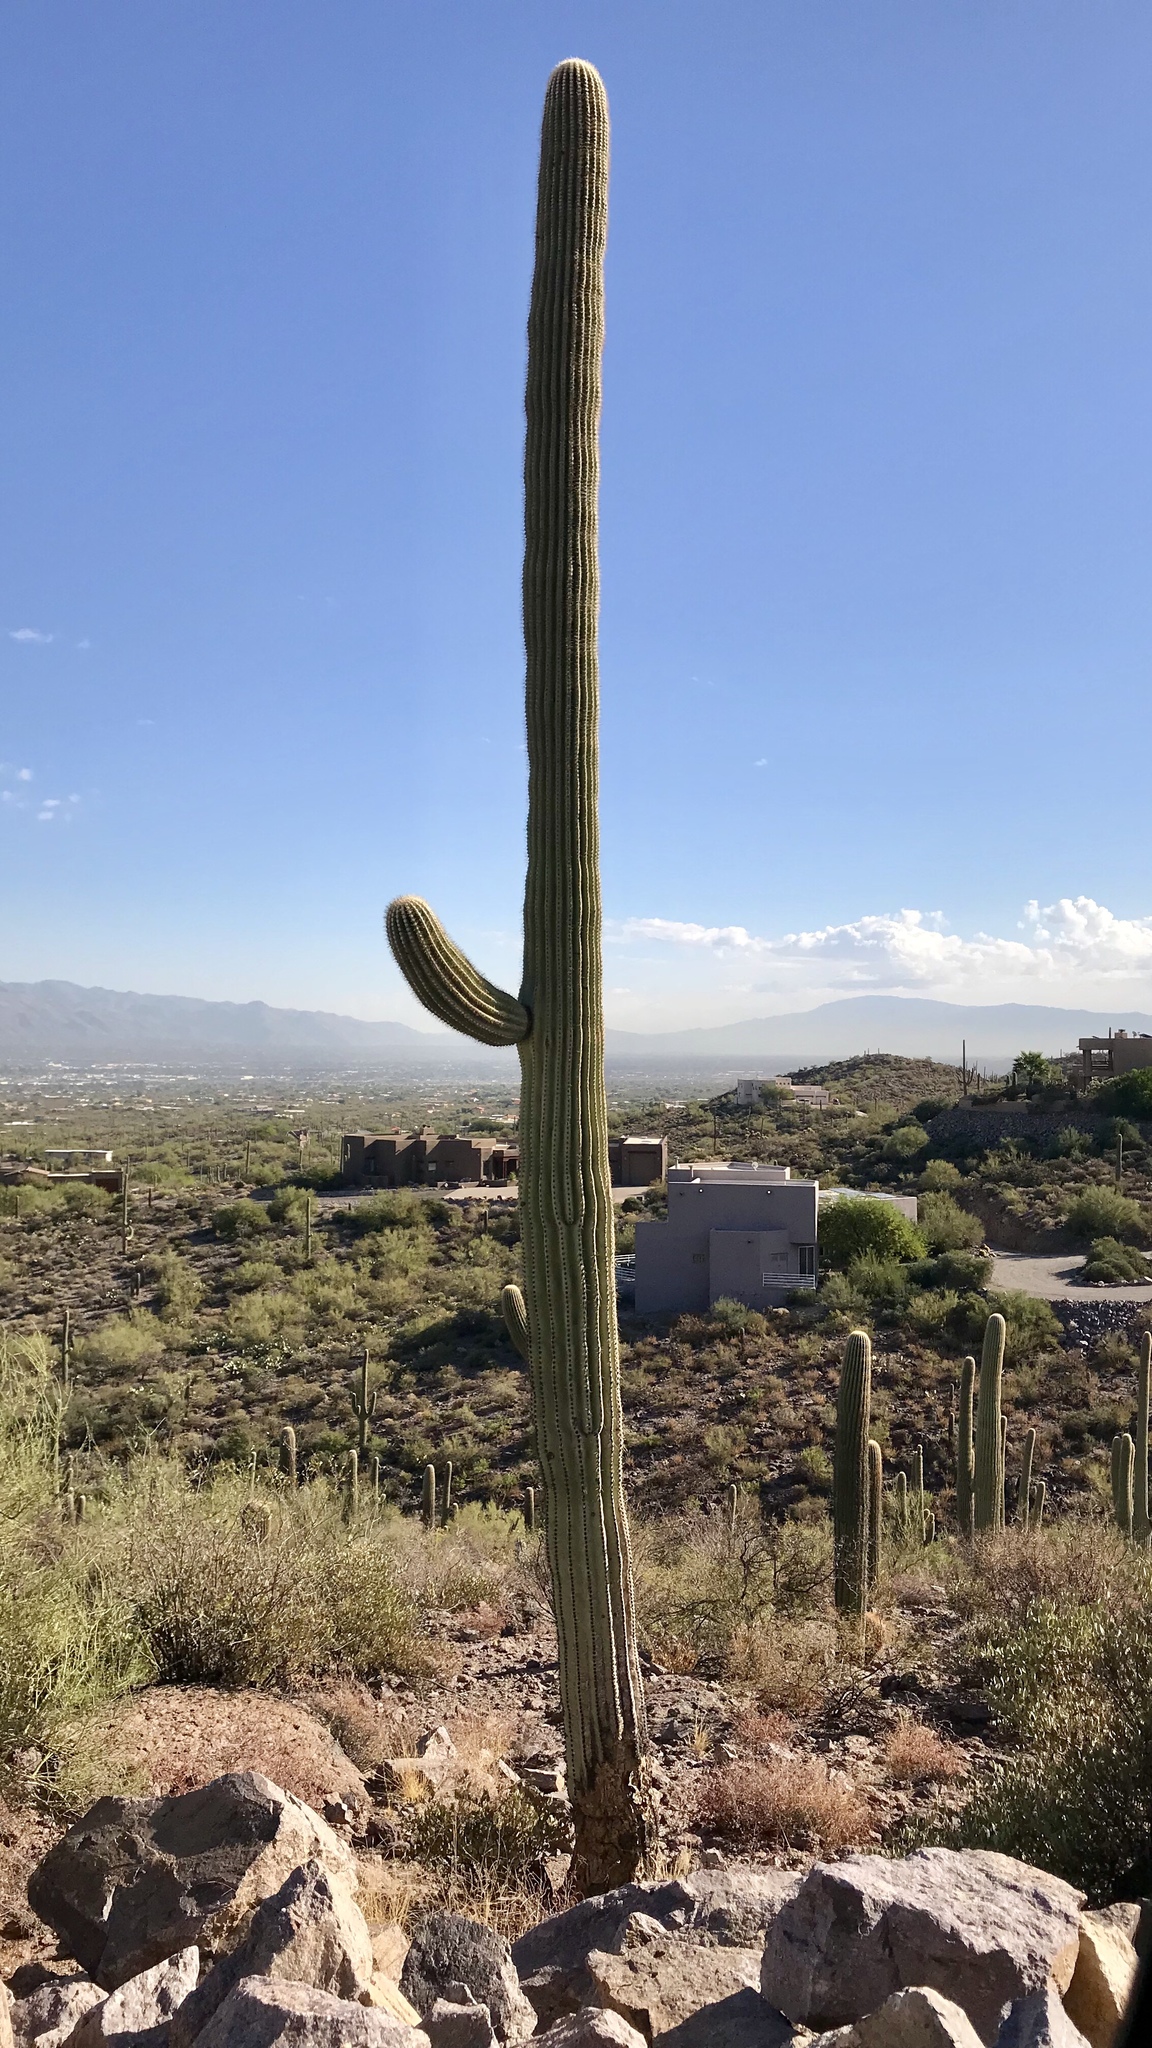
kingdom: Plantae
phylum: Tracheophyta
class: Magnoliopsida
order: Caryophyllales
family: Cactaceae
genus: Carnegiea
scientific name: Carnegiea gigantea
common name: Saguaro
